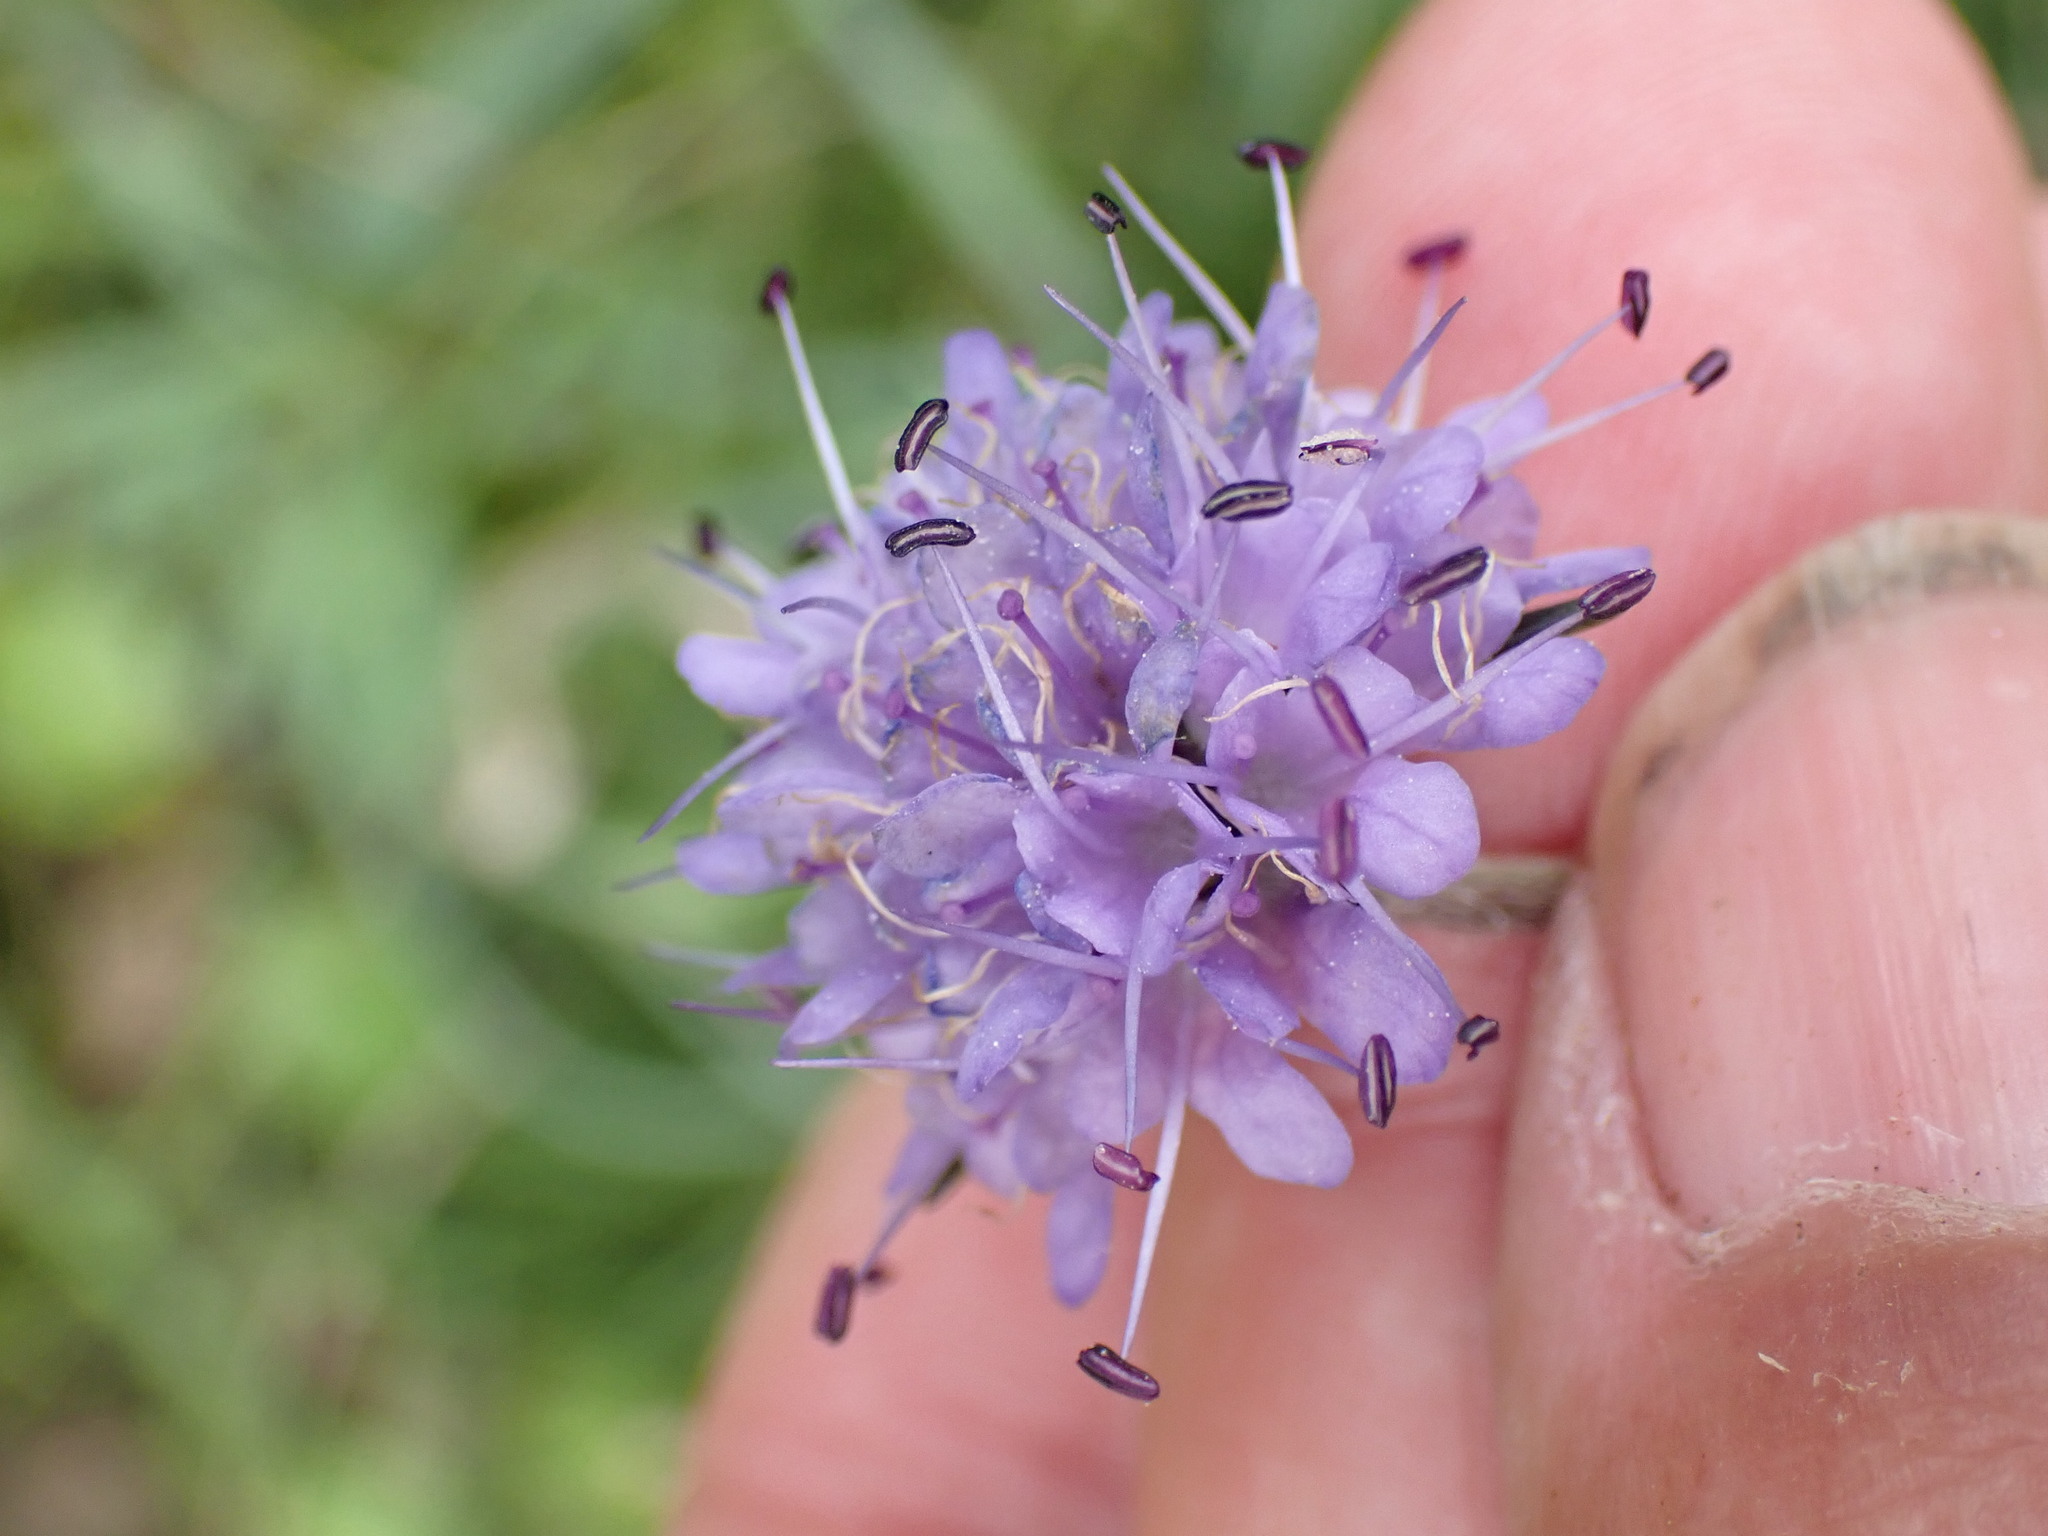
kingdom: Plantae
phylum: Tracheophyta
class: Magnoliopsida
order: Dipsacales
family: Caprifoliaceae
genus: Succisa
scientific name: Succisa pratensis
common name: Devil's-bit
